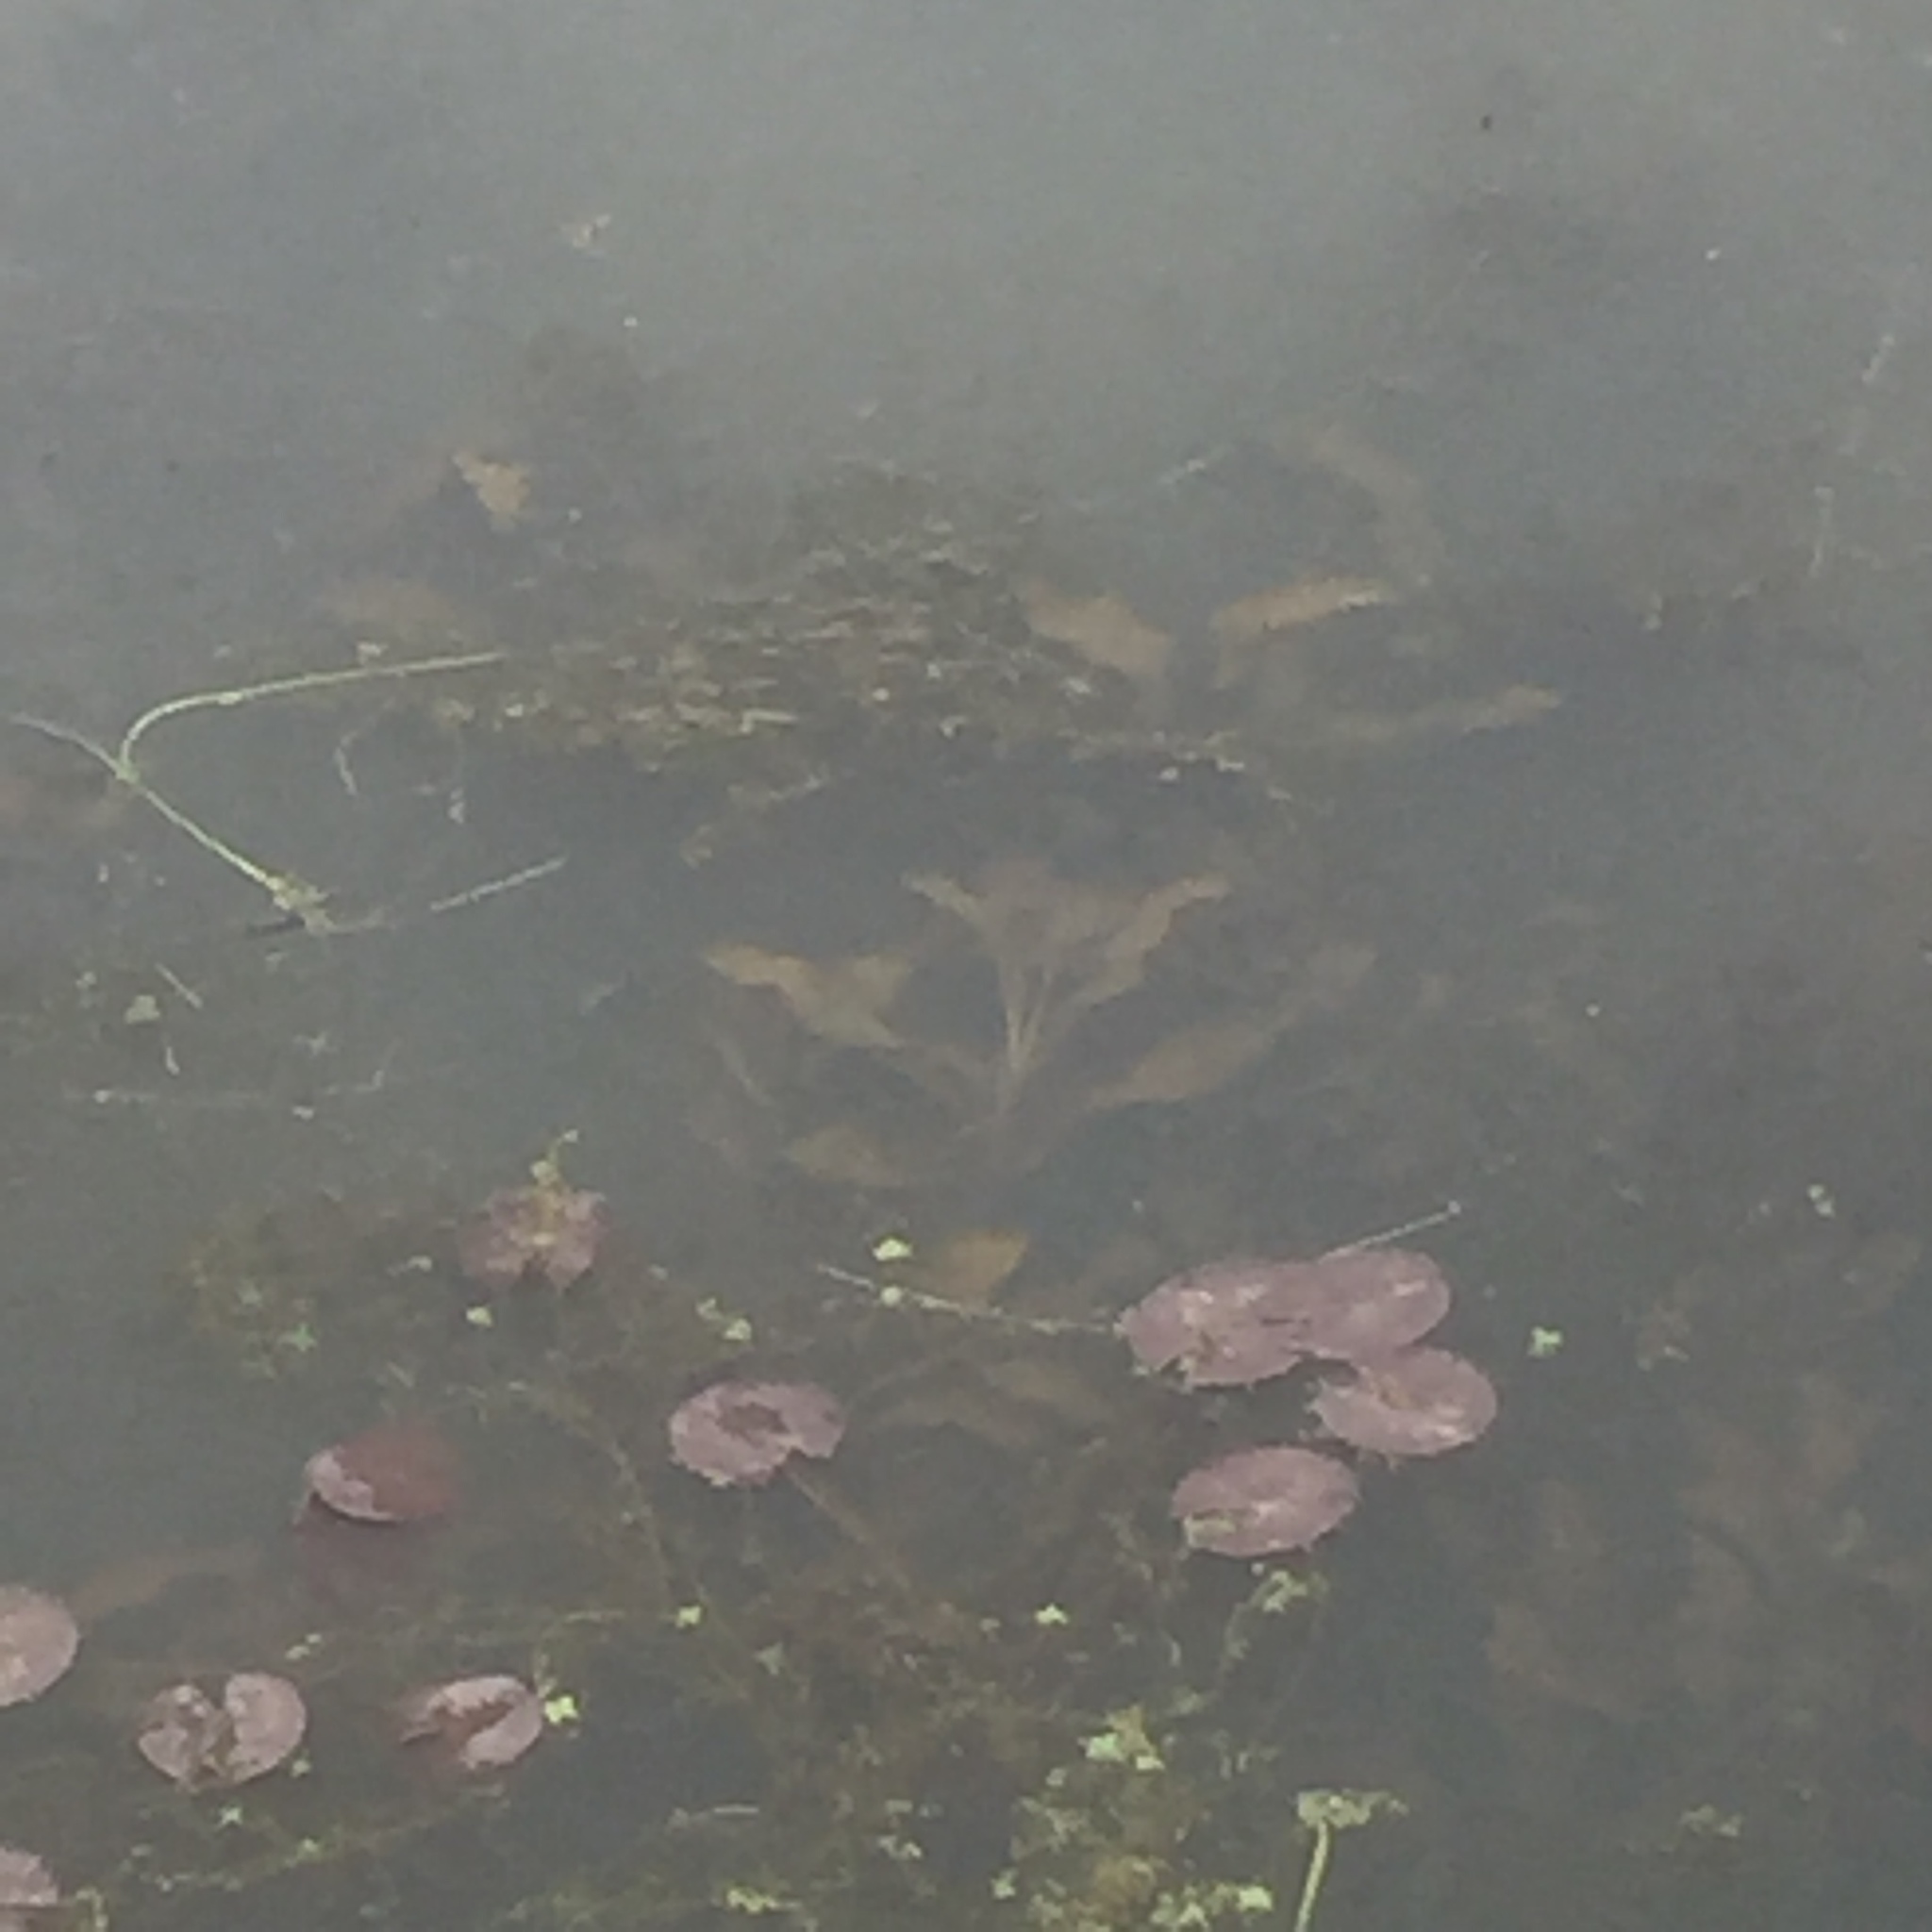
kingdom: Plantae
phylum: Tracheophyta
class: Liliopsida
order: Alismatales
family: Potamogetonaceae
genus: Potamogeton
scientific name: Potamogeton lucens
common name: Shining pondweed
